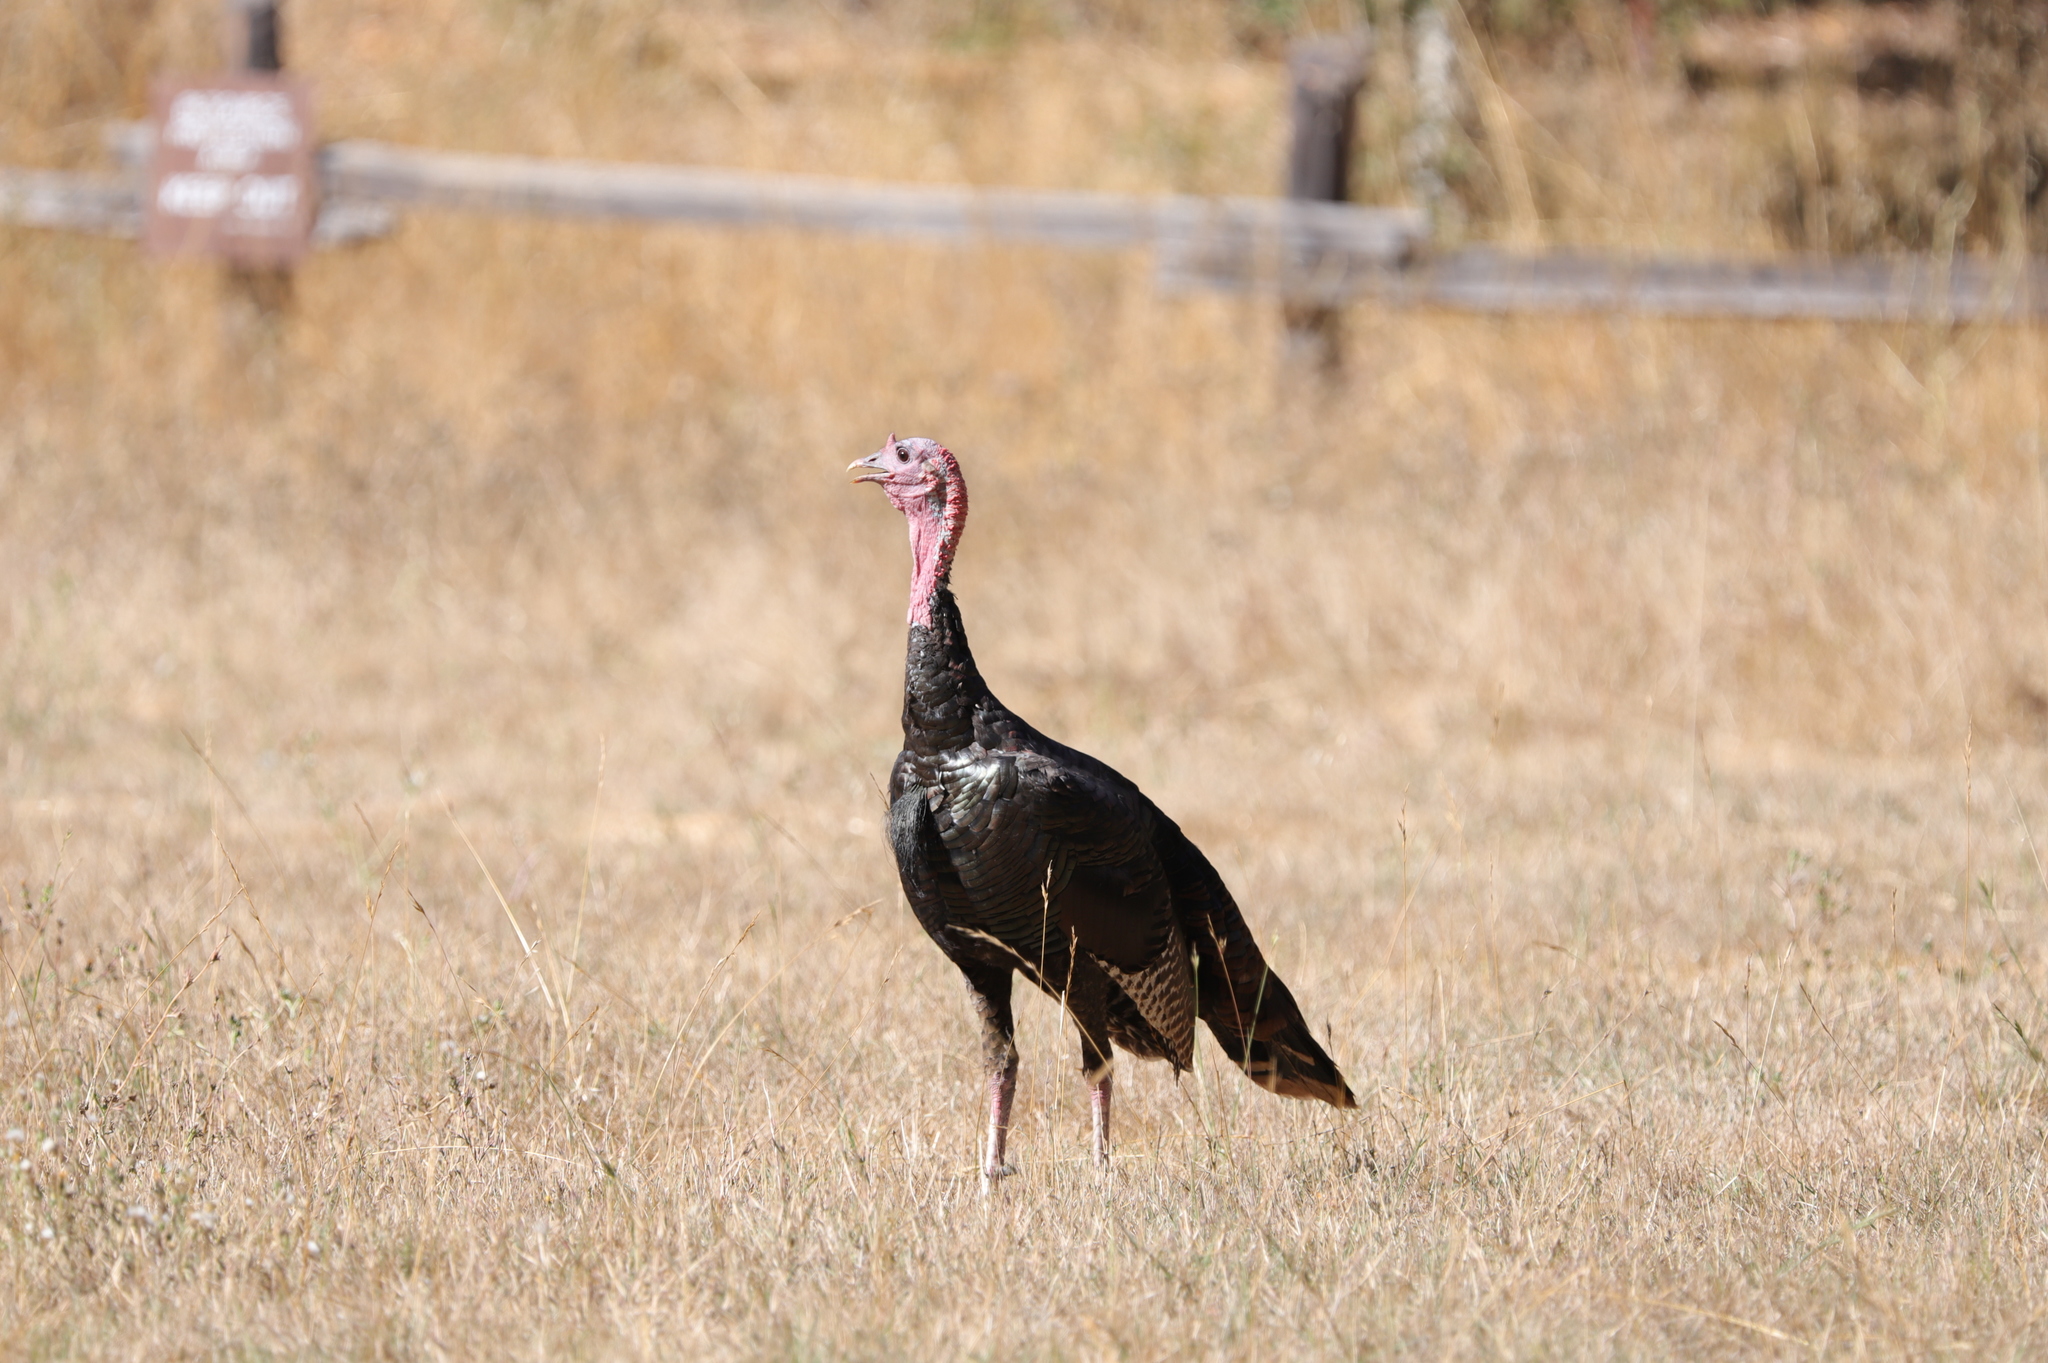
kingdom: Animalia
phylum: Chordata
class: Aves
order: Galliformes
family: Phasianidae
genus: Meleagris
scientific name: Meleagris gallopavo
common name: Wild turkey
